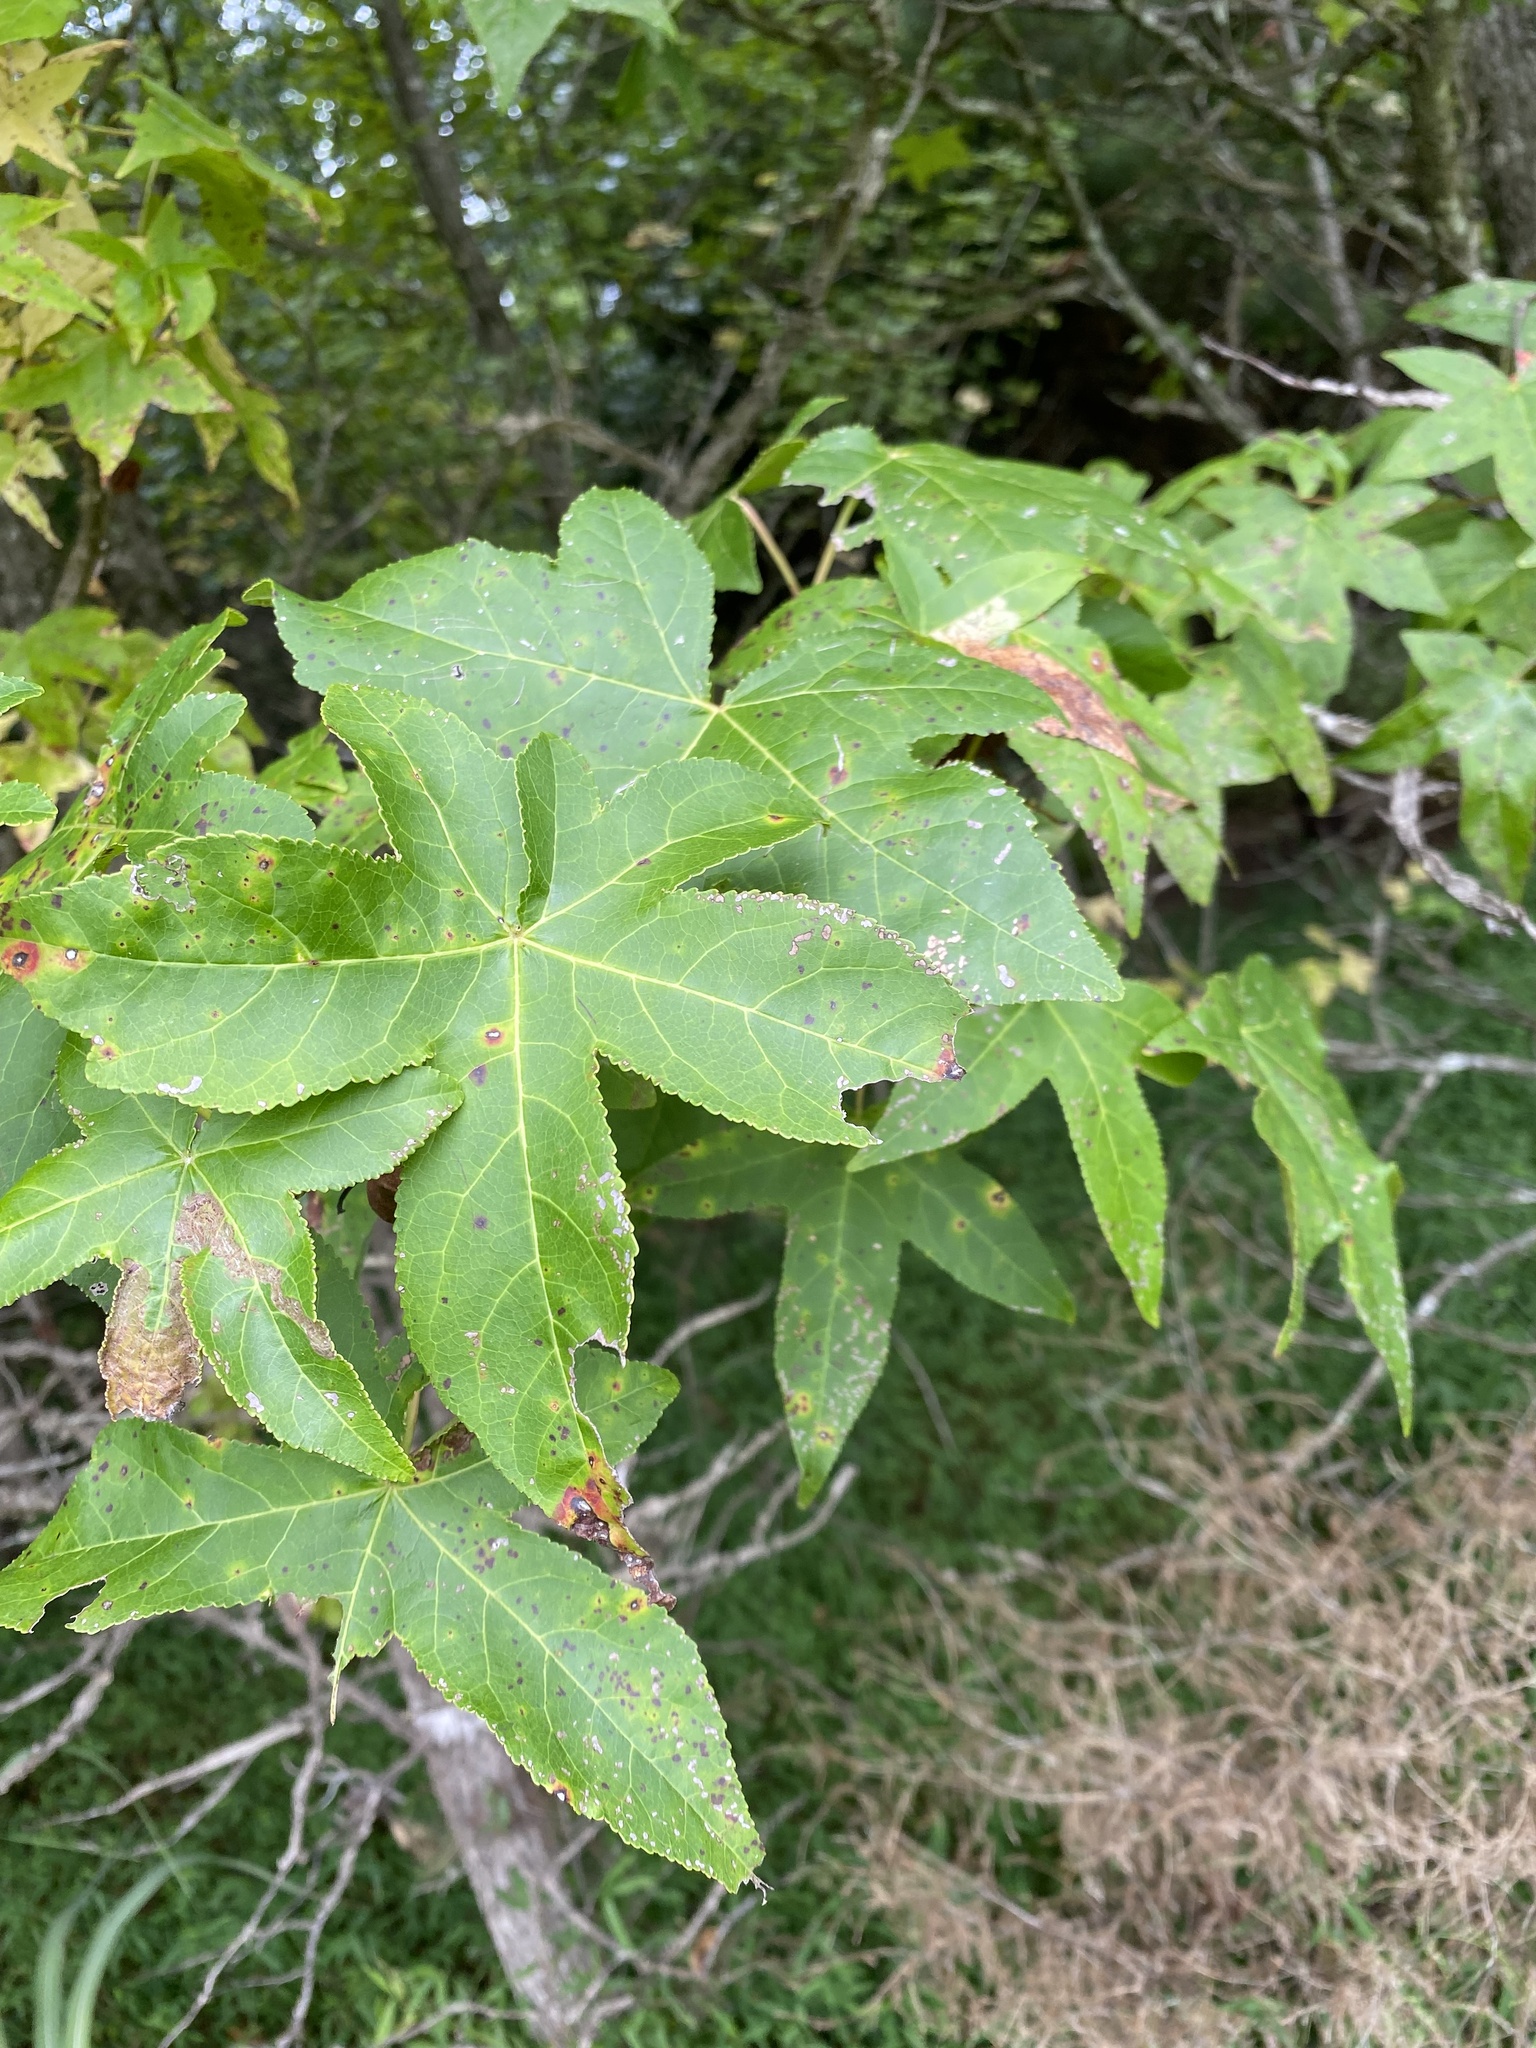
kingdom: Plantae
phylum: Tracheophyta
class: Magnoliopsida
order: Saxifragales
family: Altingiaceae
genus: Liquidambar
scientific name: Liquidambar styraciflua
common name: Sweet gum
